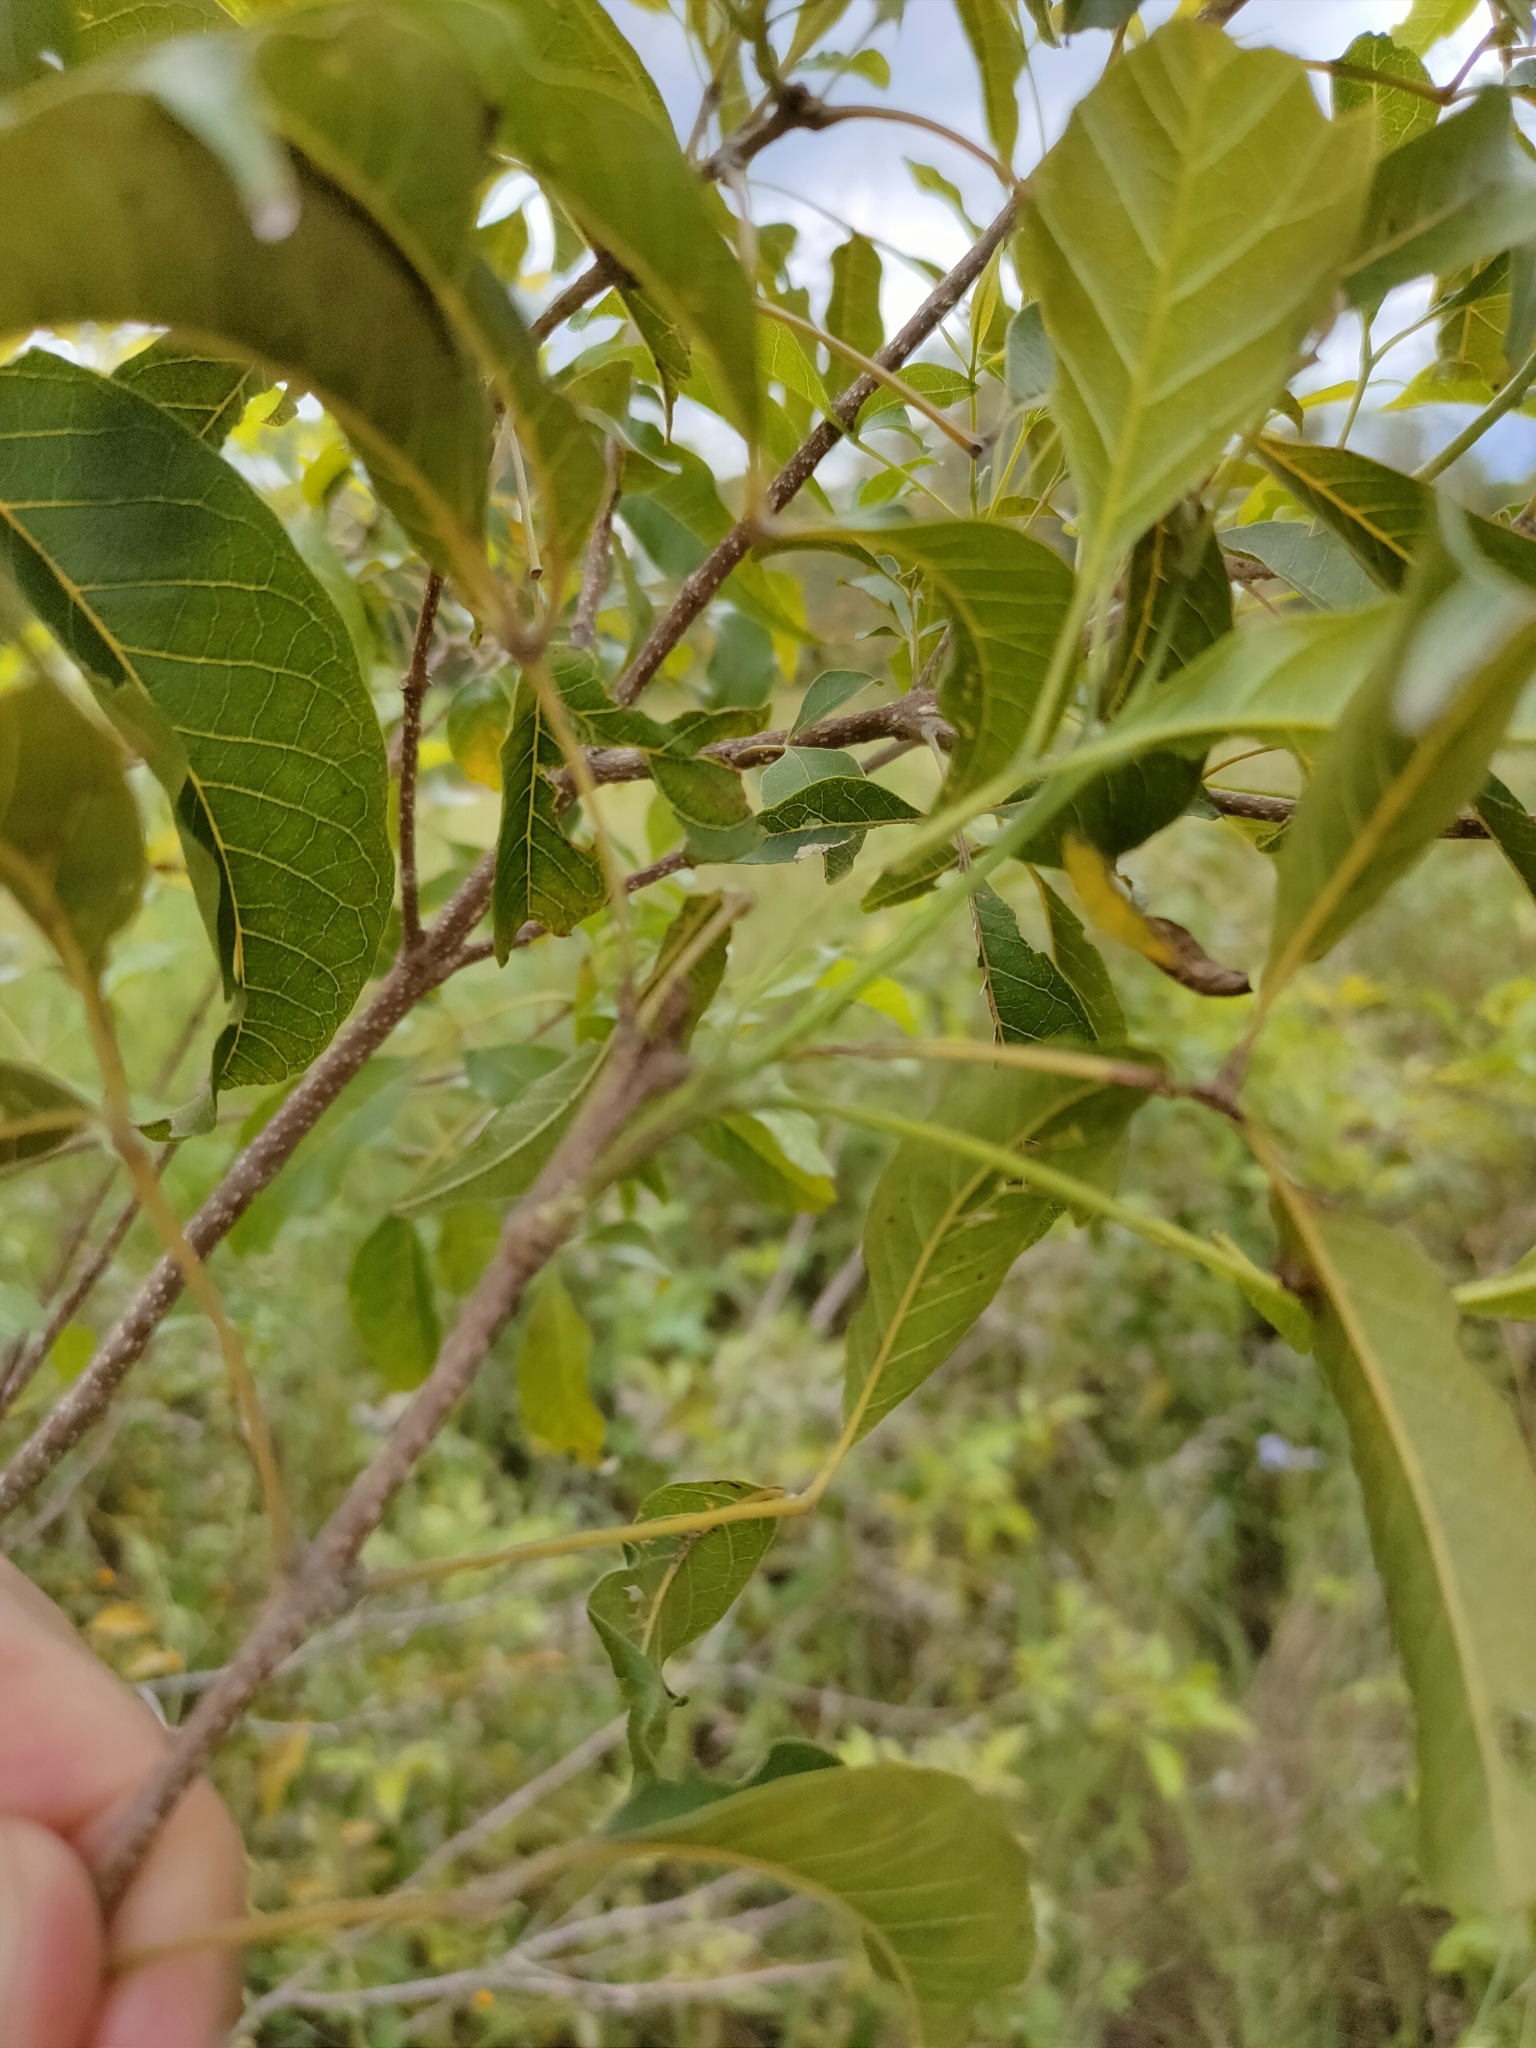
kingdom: Plantae
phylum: Tracheophyta
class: Magnoliopsida
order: Lamiales
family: Lamiaceae
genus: Vitex
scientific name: Vitex melicopea
